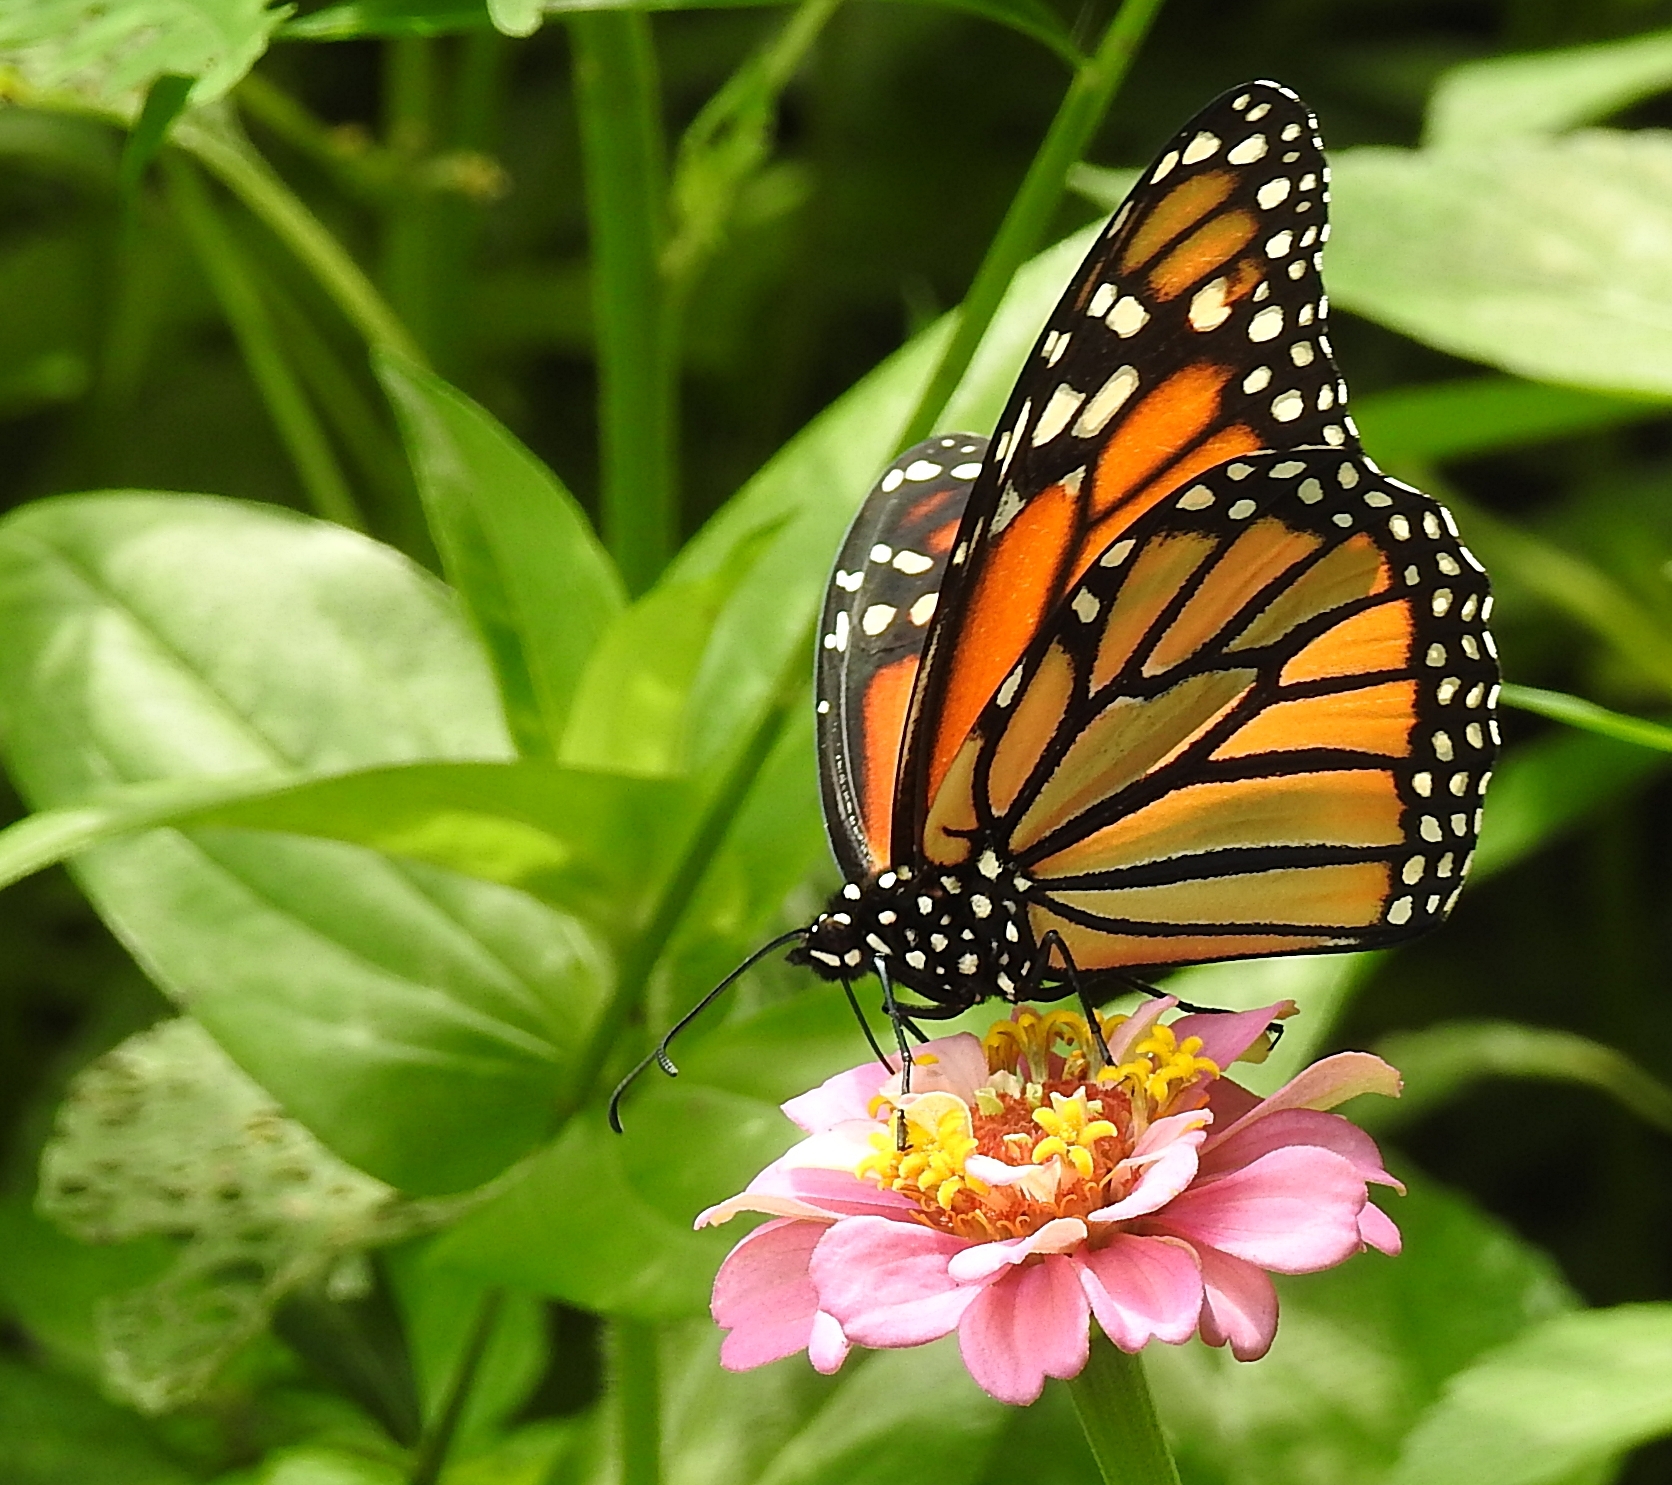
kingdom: Animalia
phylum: Arthropoda
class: Insecta
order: Lepidoptera
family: Nymphalidae
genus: Danaus
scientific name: Danaus plexippus
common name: Monarch
